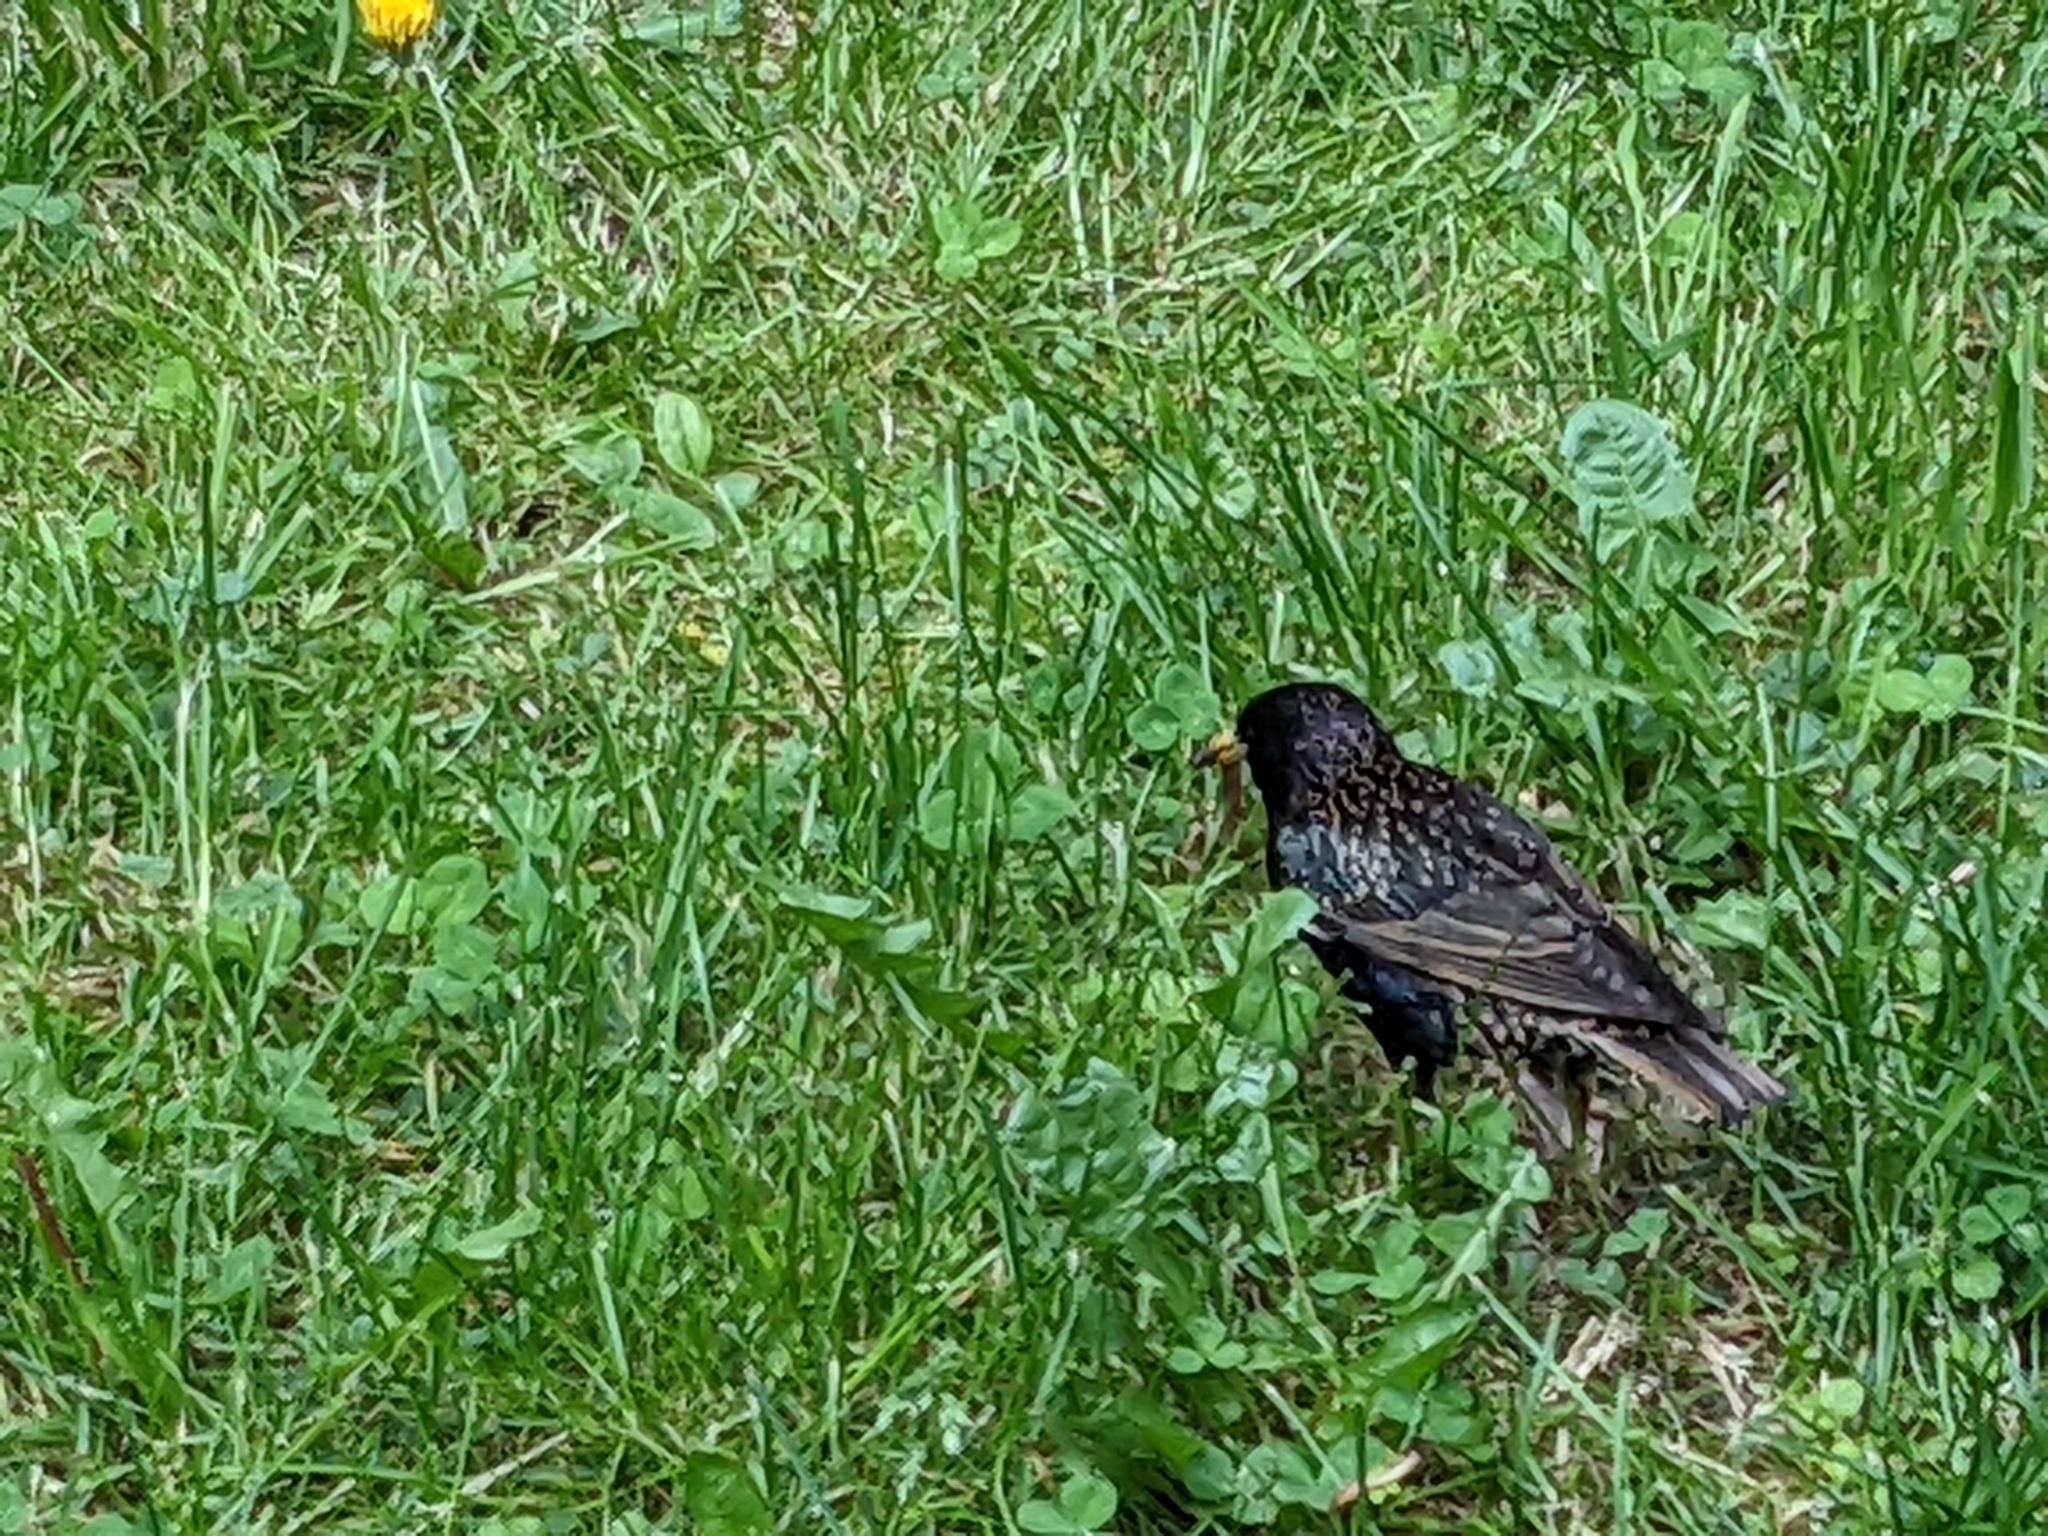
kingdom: Animalia
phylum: Chordata
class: Aves
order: Passeriformes
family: Sturnidae
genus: Sturnus
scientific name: Sturnus vulgaris
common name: Common starling
